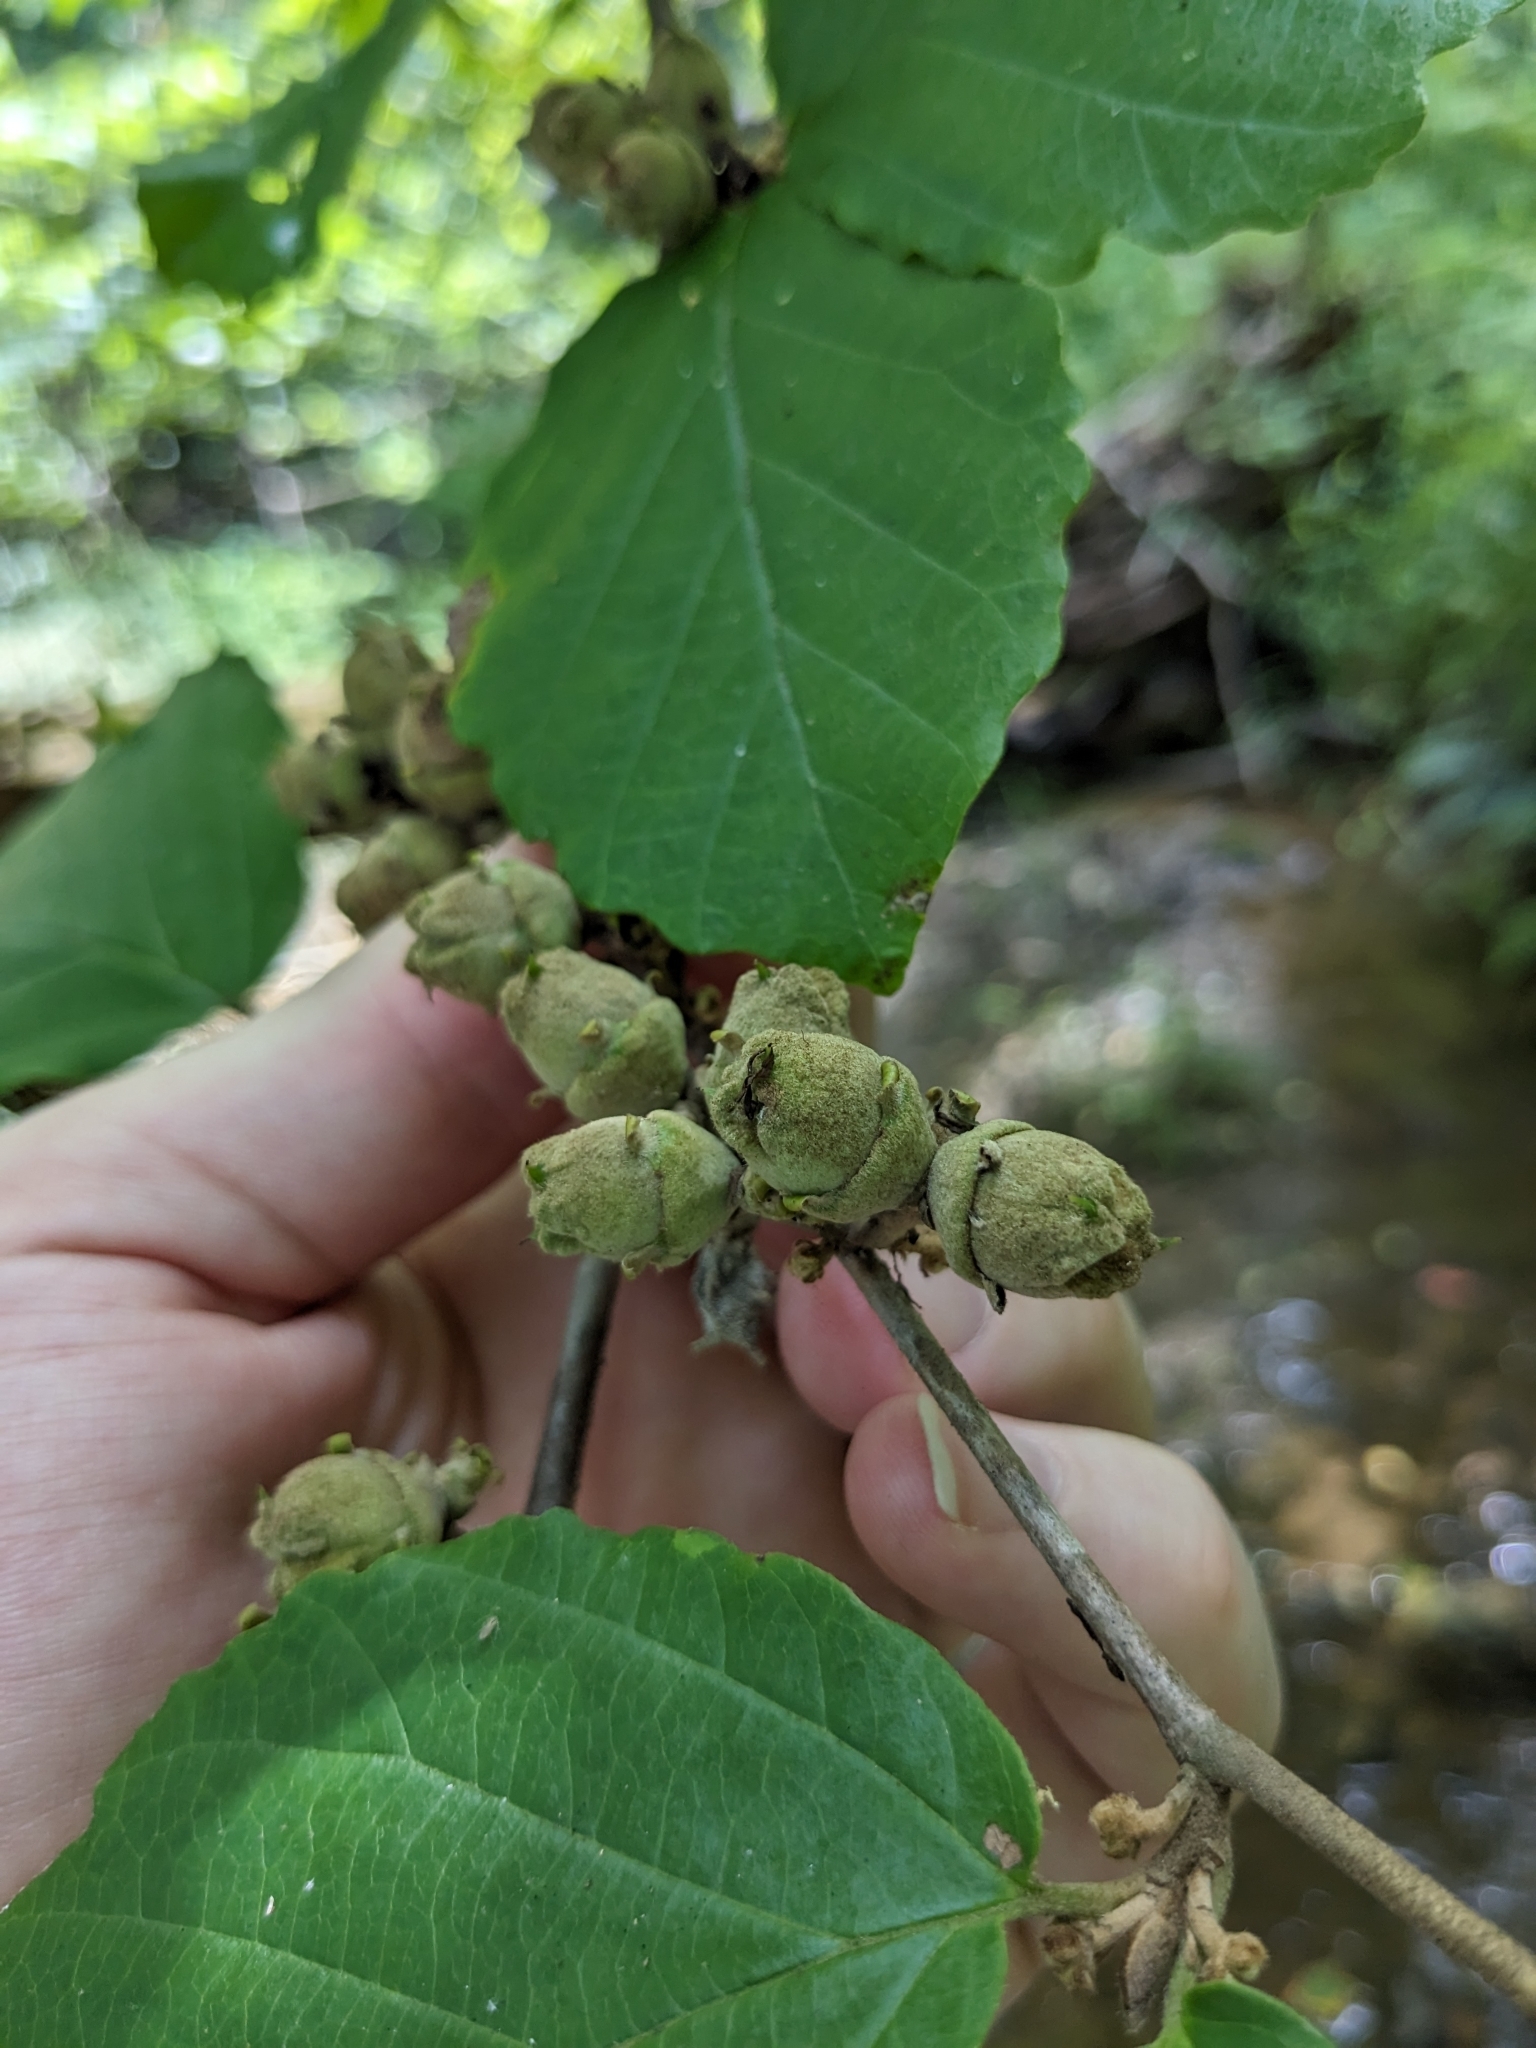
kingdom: Animalia
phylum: Arthropoda
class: Insecta
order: Hemiptera
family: Aphididae
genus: Hamamelistes
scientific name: Hamamelistes spinosus
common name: Witch hazel gall aphid
